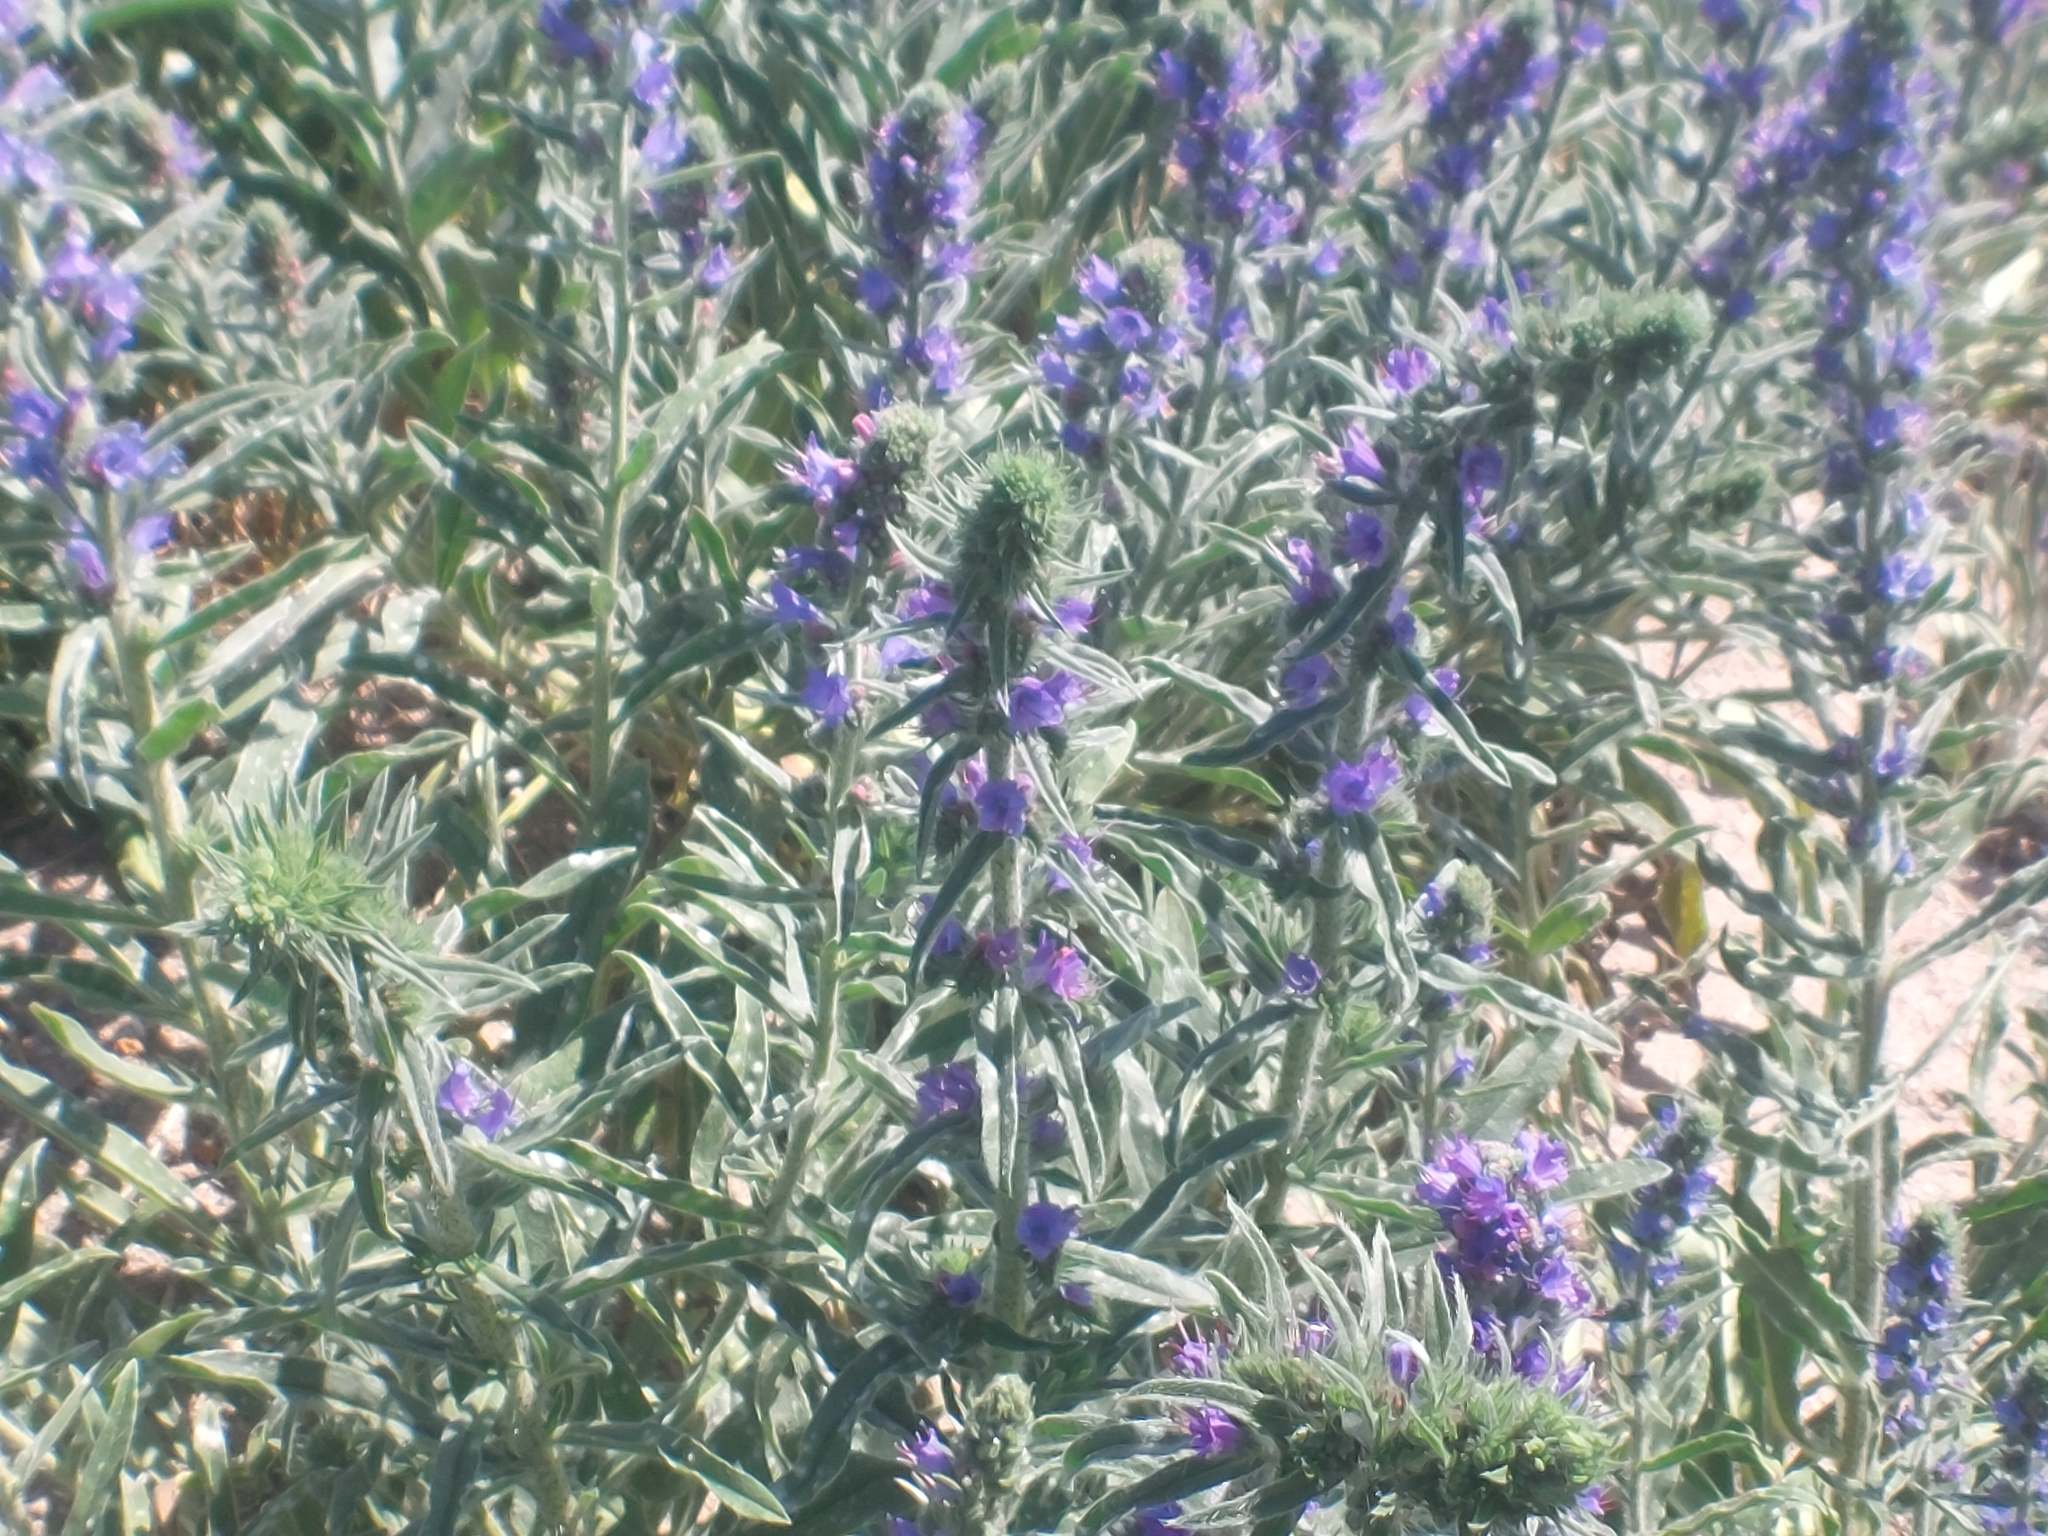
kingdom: Plantae
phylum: Tracheophyta
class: Magnoliopsida
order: Boraginales
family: Boraginaceae
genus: Echium
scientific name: Echium vulgare
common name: Common viper's bugloss
